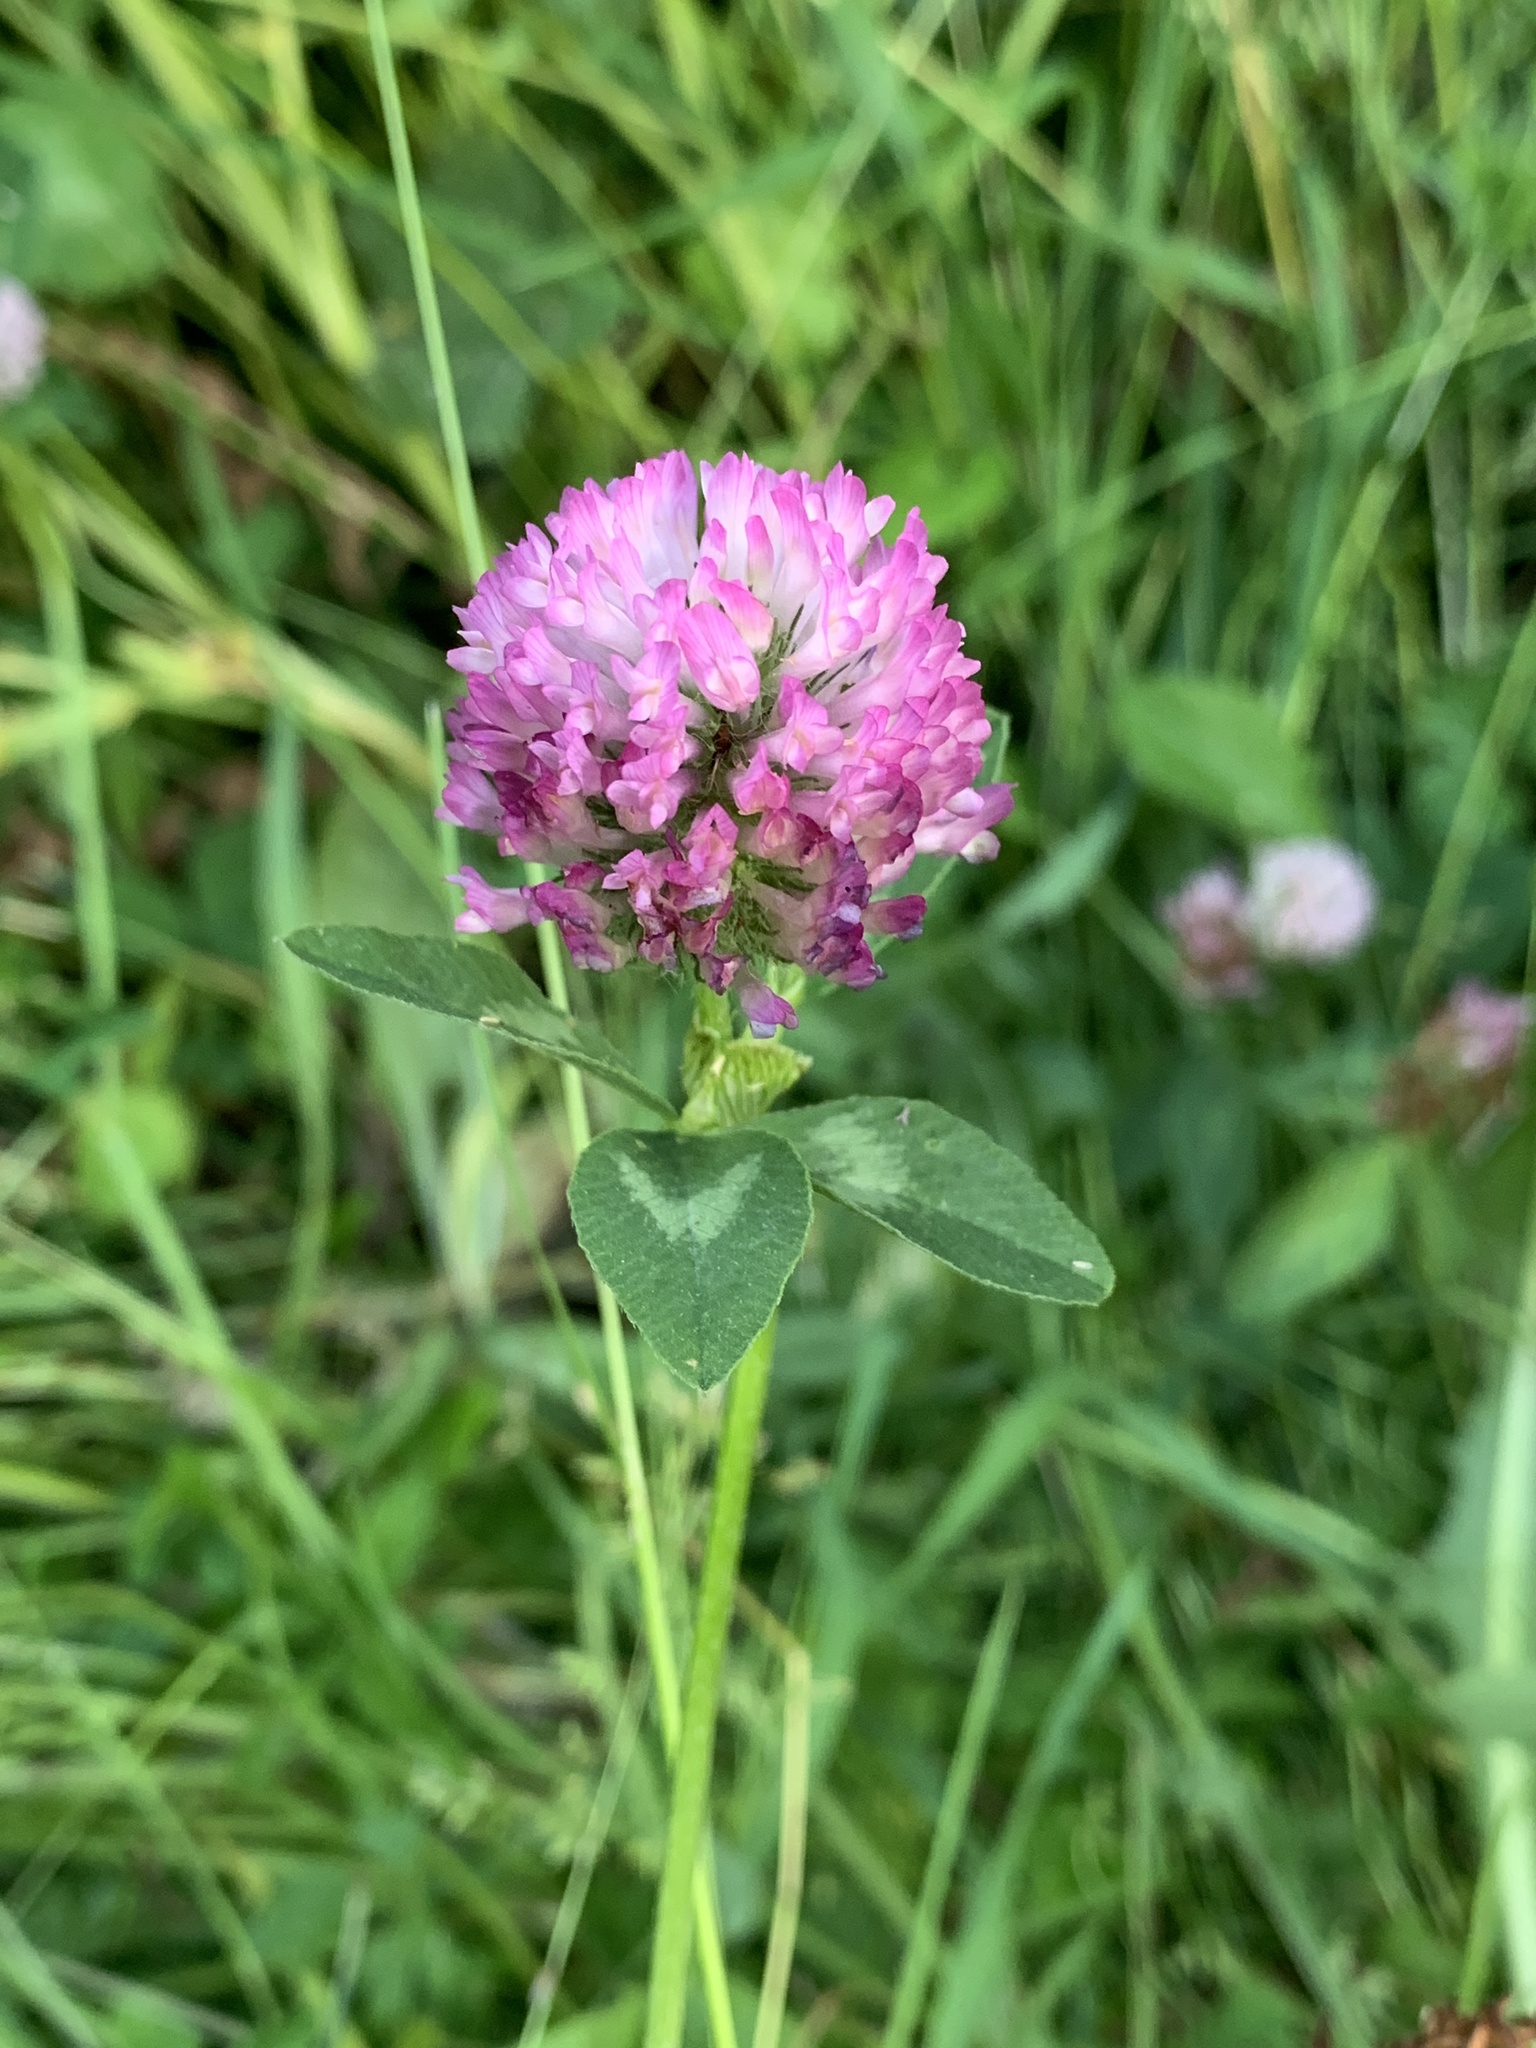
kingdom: Plantae
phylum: Tracheophyta
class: Magnoliopsida
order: Fabales
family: Fabaceae
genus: Trifolium
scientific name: Trifolium pratense
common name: Red clover
